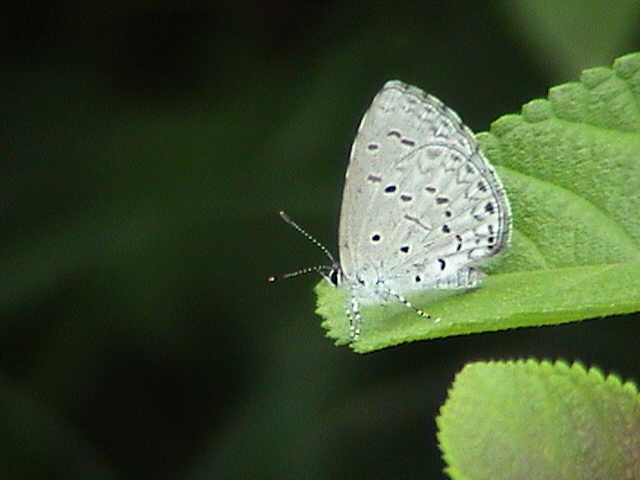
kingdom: Animalia
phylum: Arthropoda
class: Insecta
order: Lepidoptera
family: Lycaenidae
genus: Celastrina
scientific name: Celastrina lavendularis
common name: Plain hedge blue
